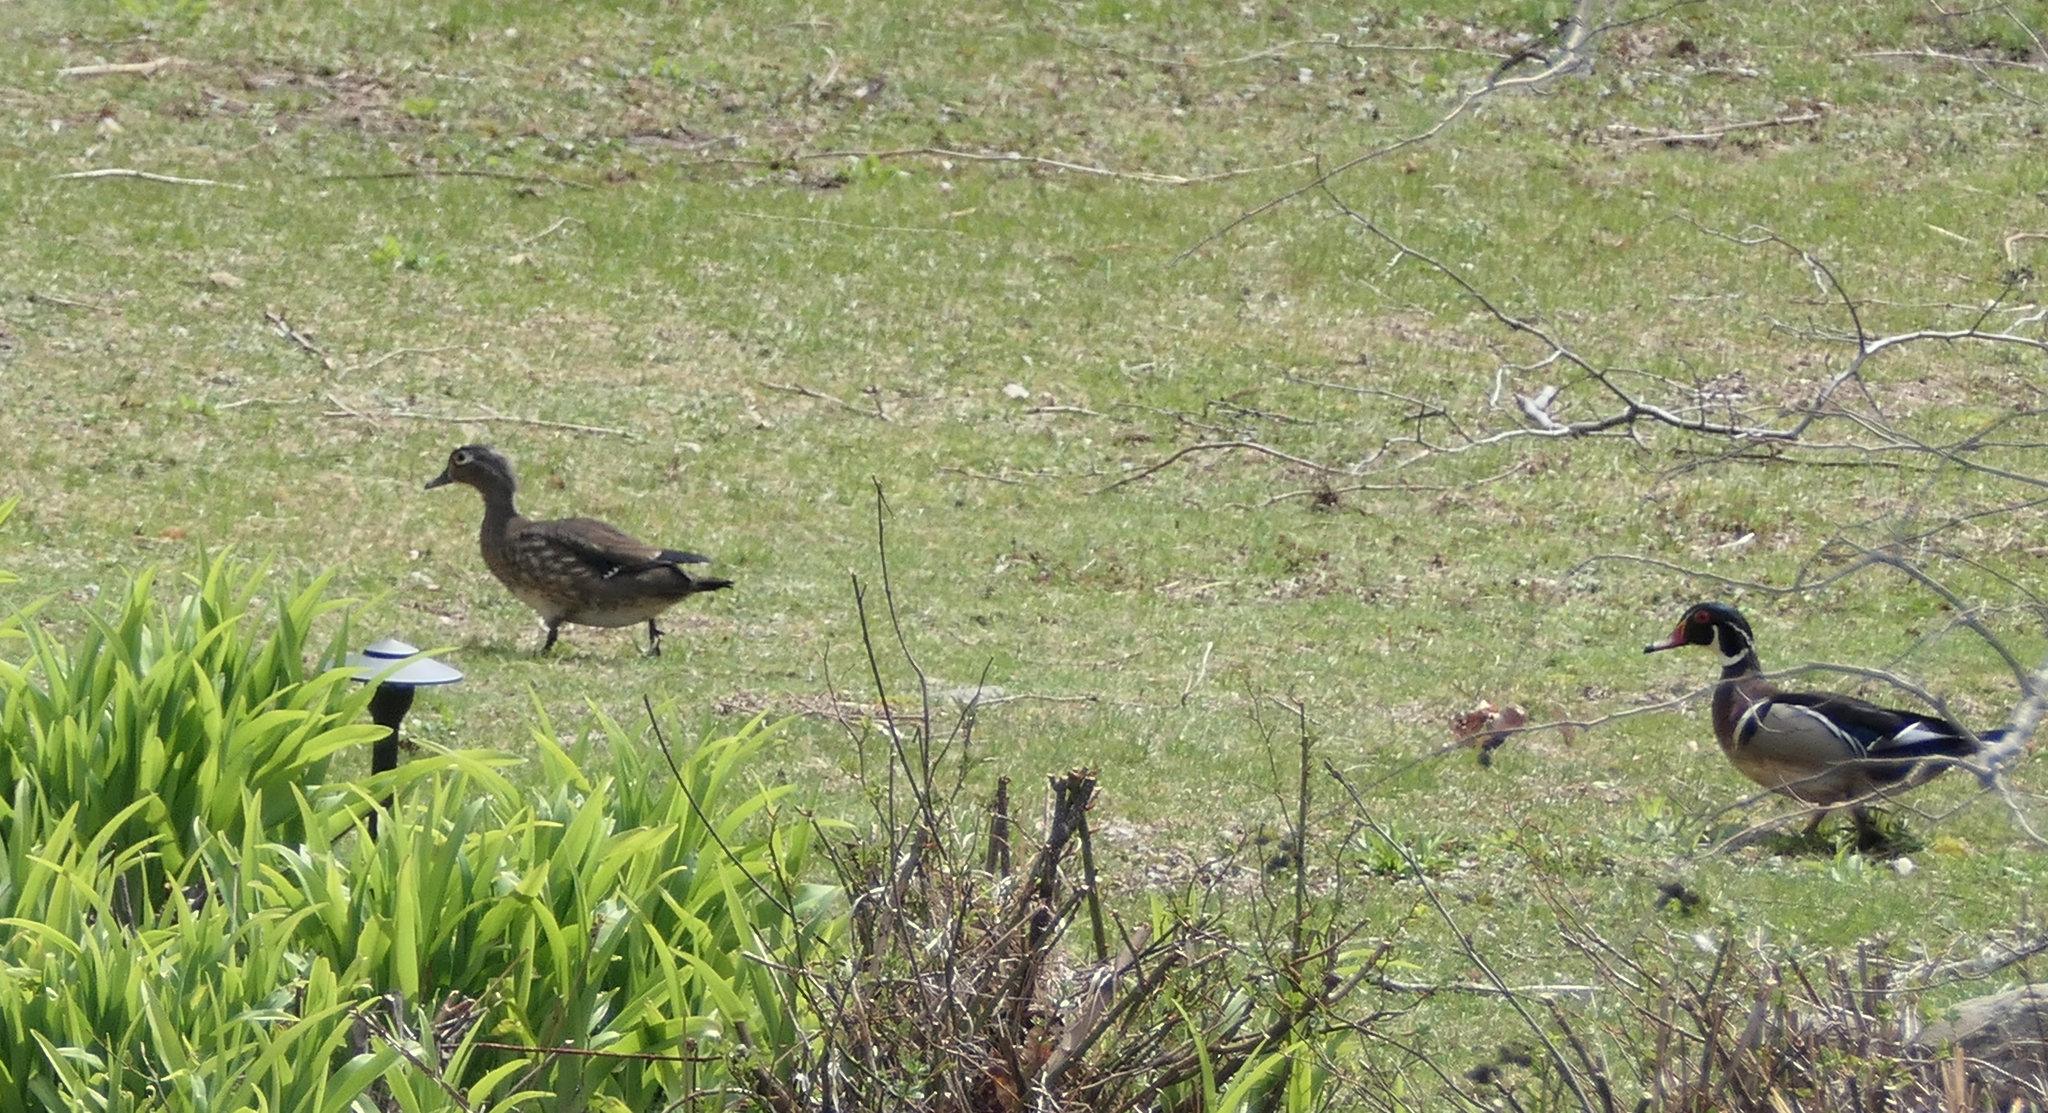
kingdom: Animalia
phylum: Chordata
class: Aves
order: Anseriformes
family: Anatidae
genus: Aix
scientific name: Aix sponsa
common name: Wood duck
